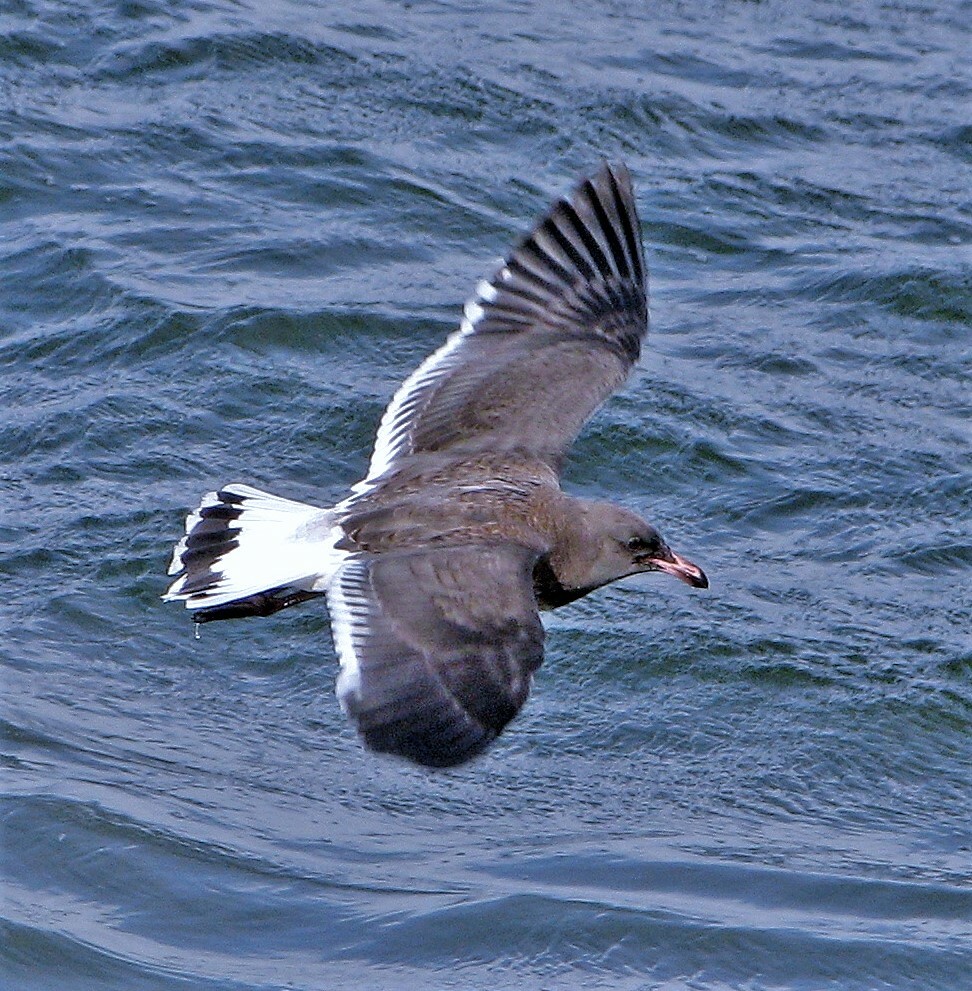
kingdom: Animalia
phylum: Chordata
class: Aves
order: Charadriiformes
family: Laridae
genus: Leucophaeus
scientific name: Leucophaeus scoresbii
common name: Dolphin gull
